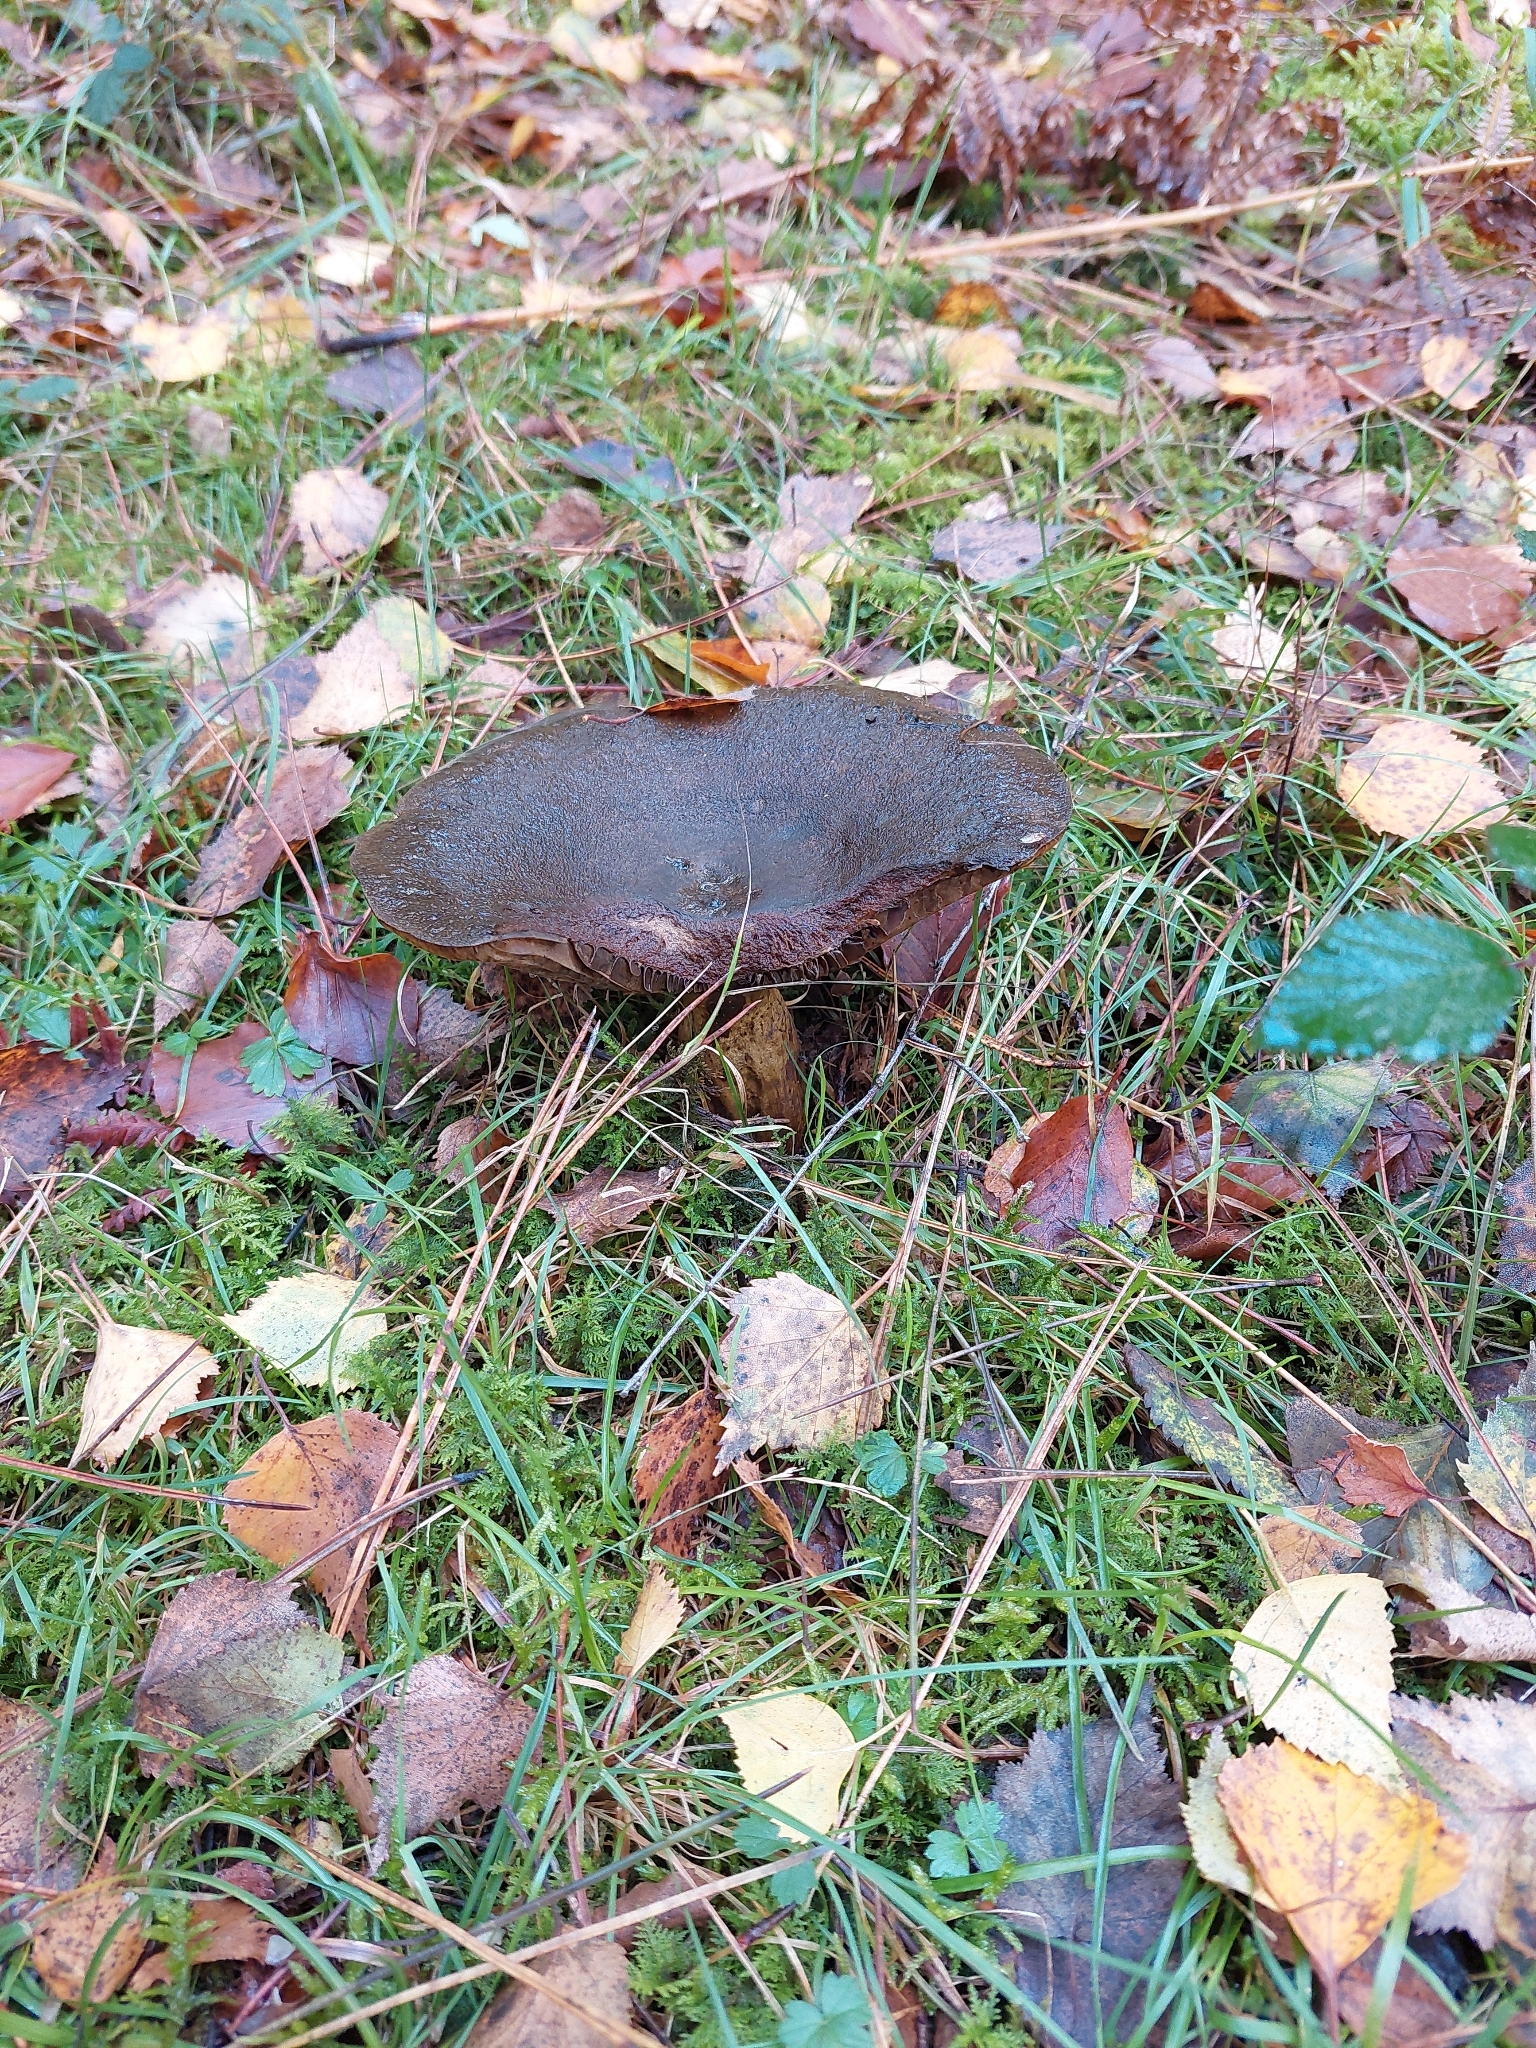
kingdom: Fungi
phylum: Basidiomycota
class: Agaricomycetes
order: Russulales
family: Russulaceae
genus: Lactarius
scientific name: Lactarius turpis
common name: Ugly milk-cap
